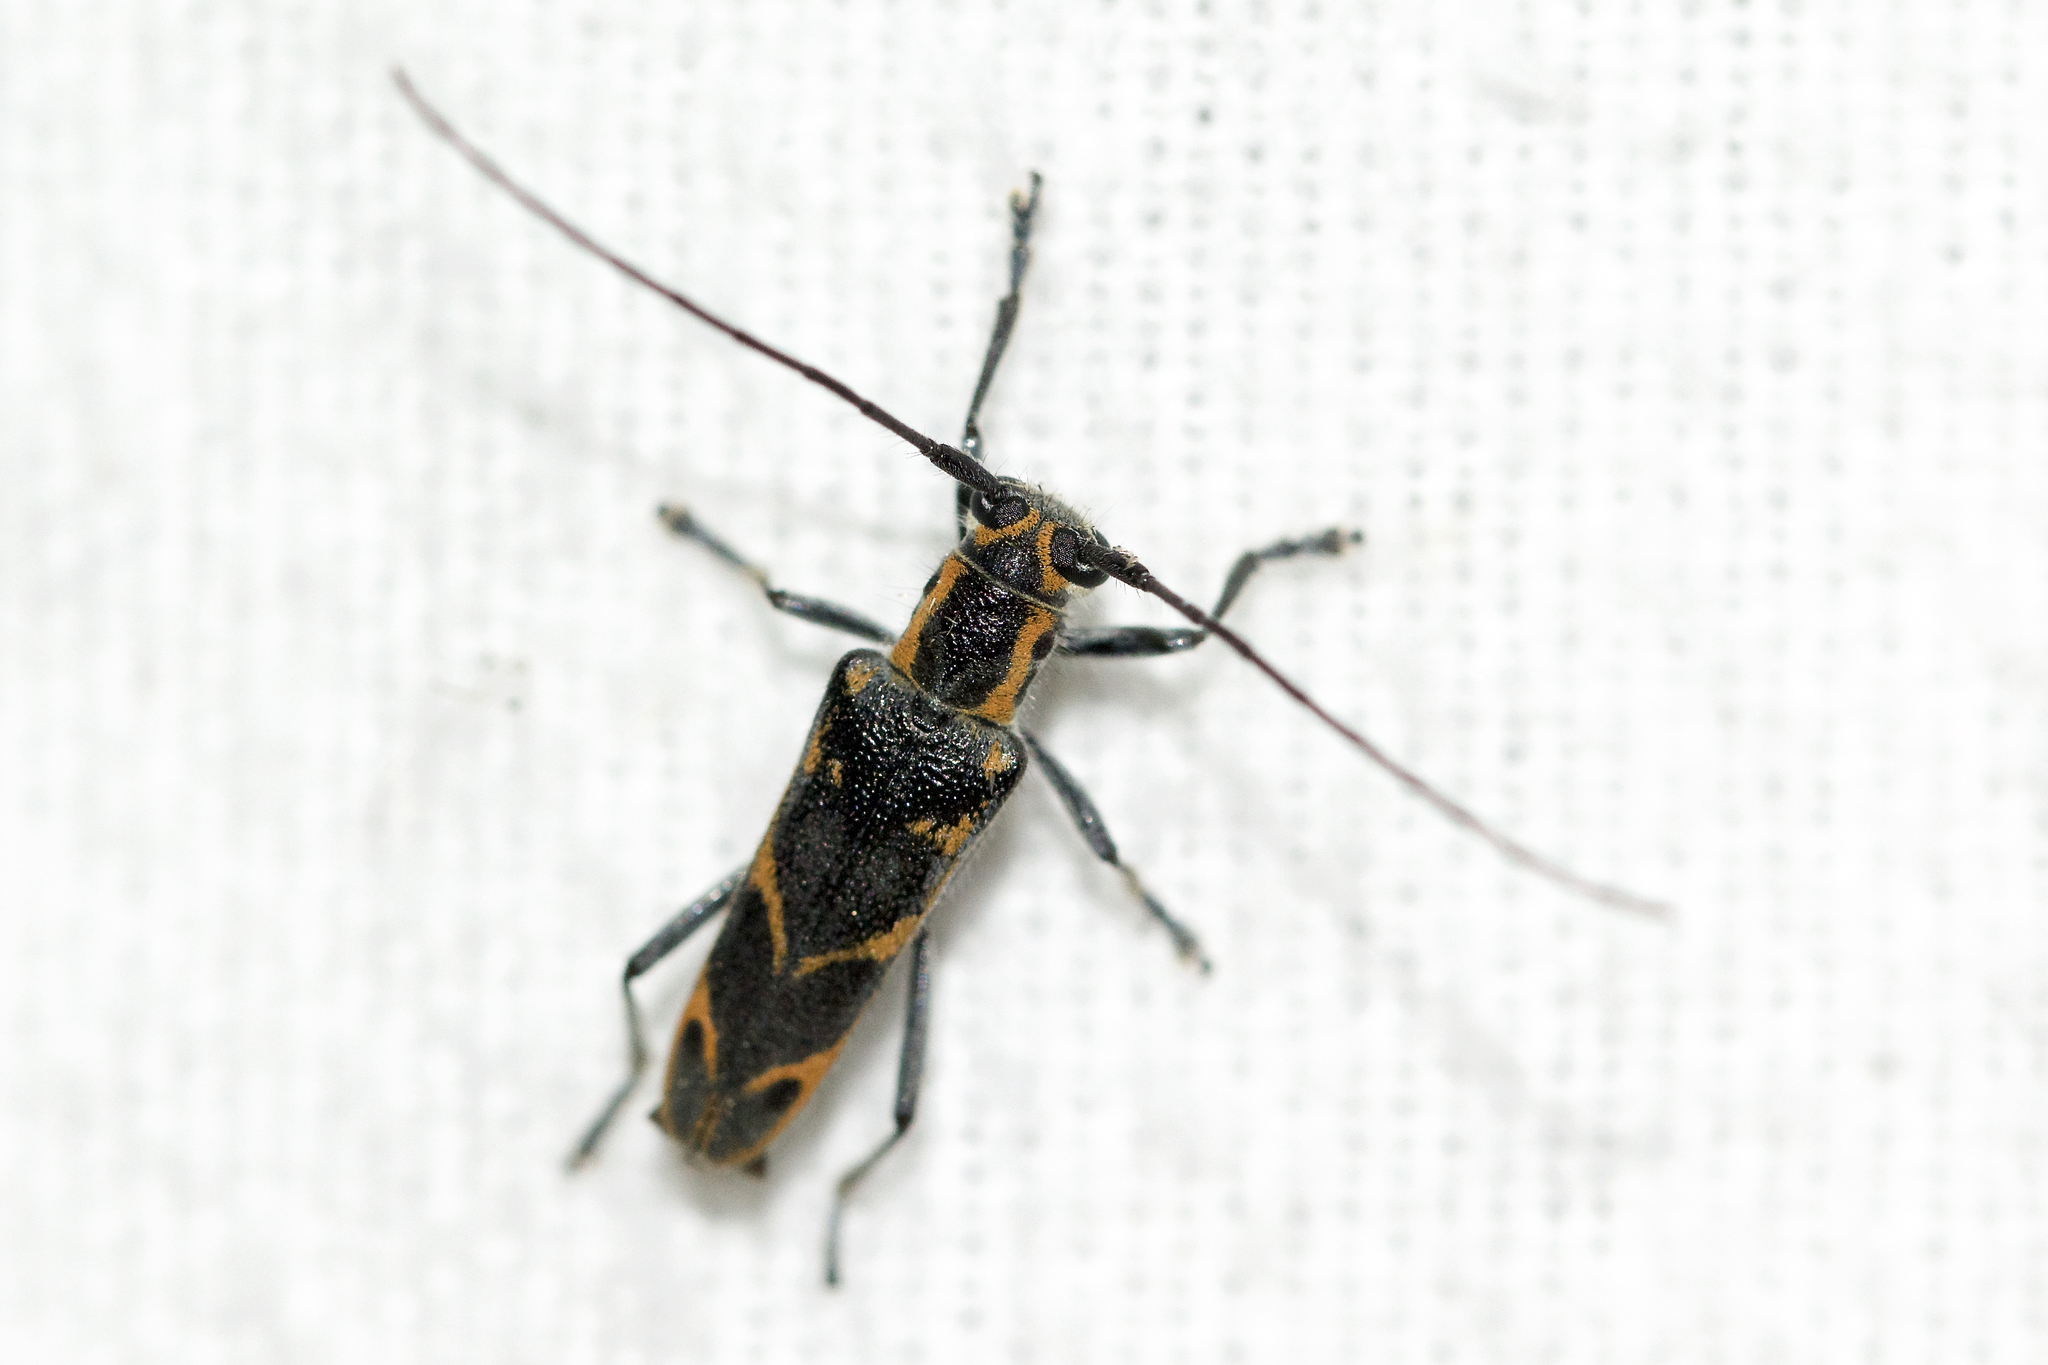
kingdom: Animalia
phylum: Arthropoda
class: Insecta
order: Coleoptera
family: Cerambycidae
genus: Saperda
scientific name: Saperda tridentata
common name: Elm borer
